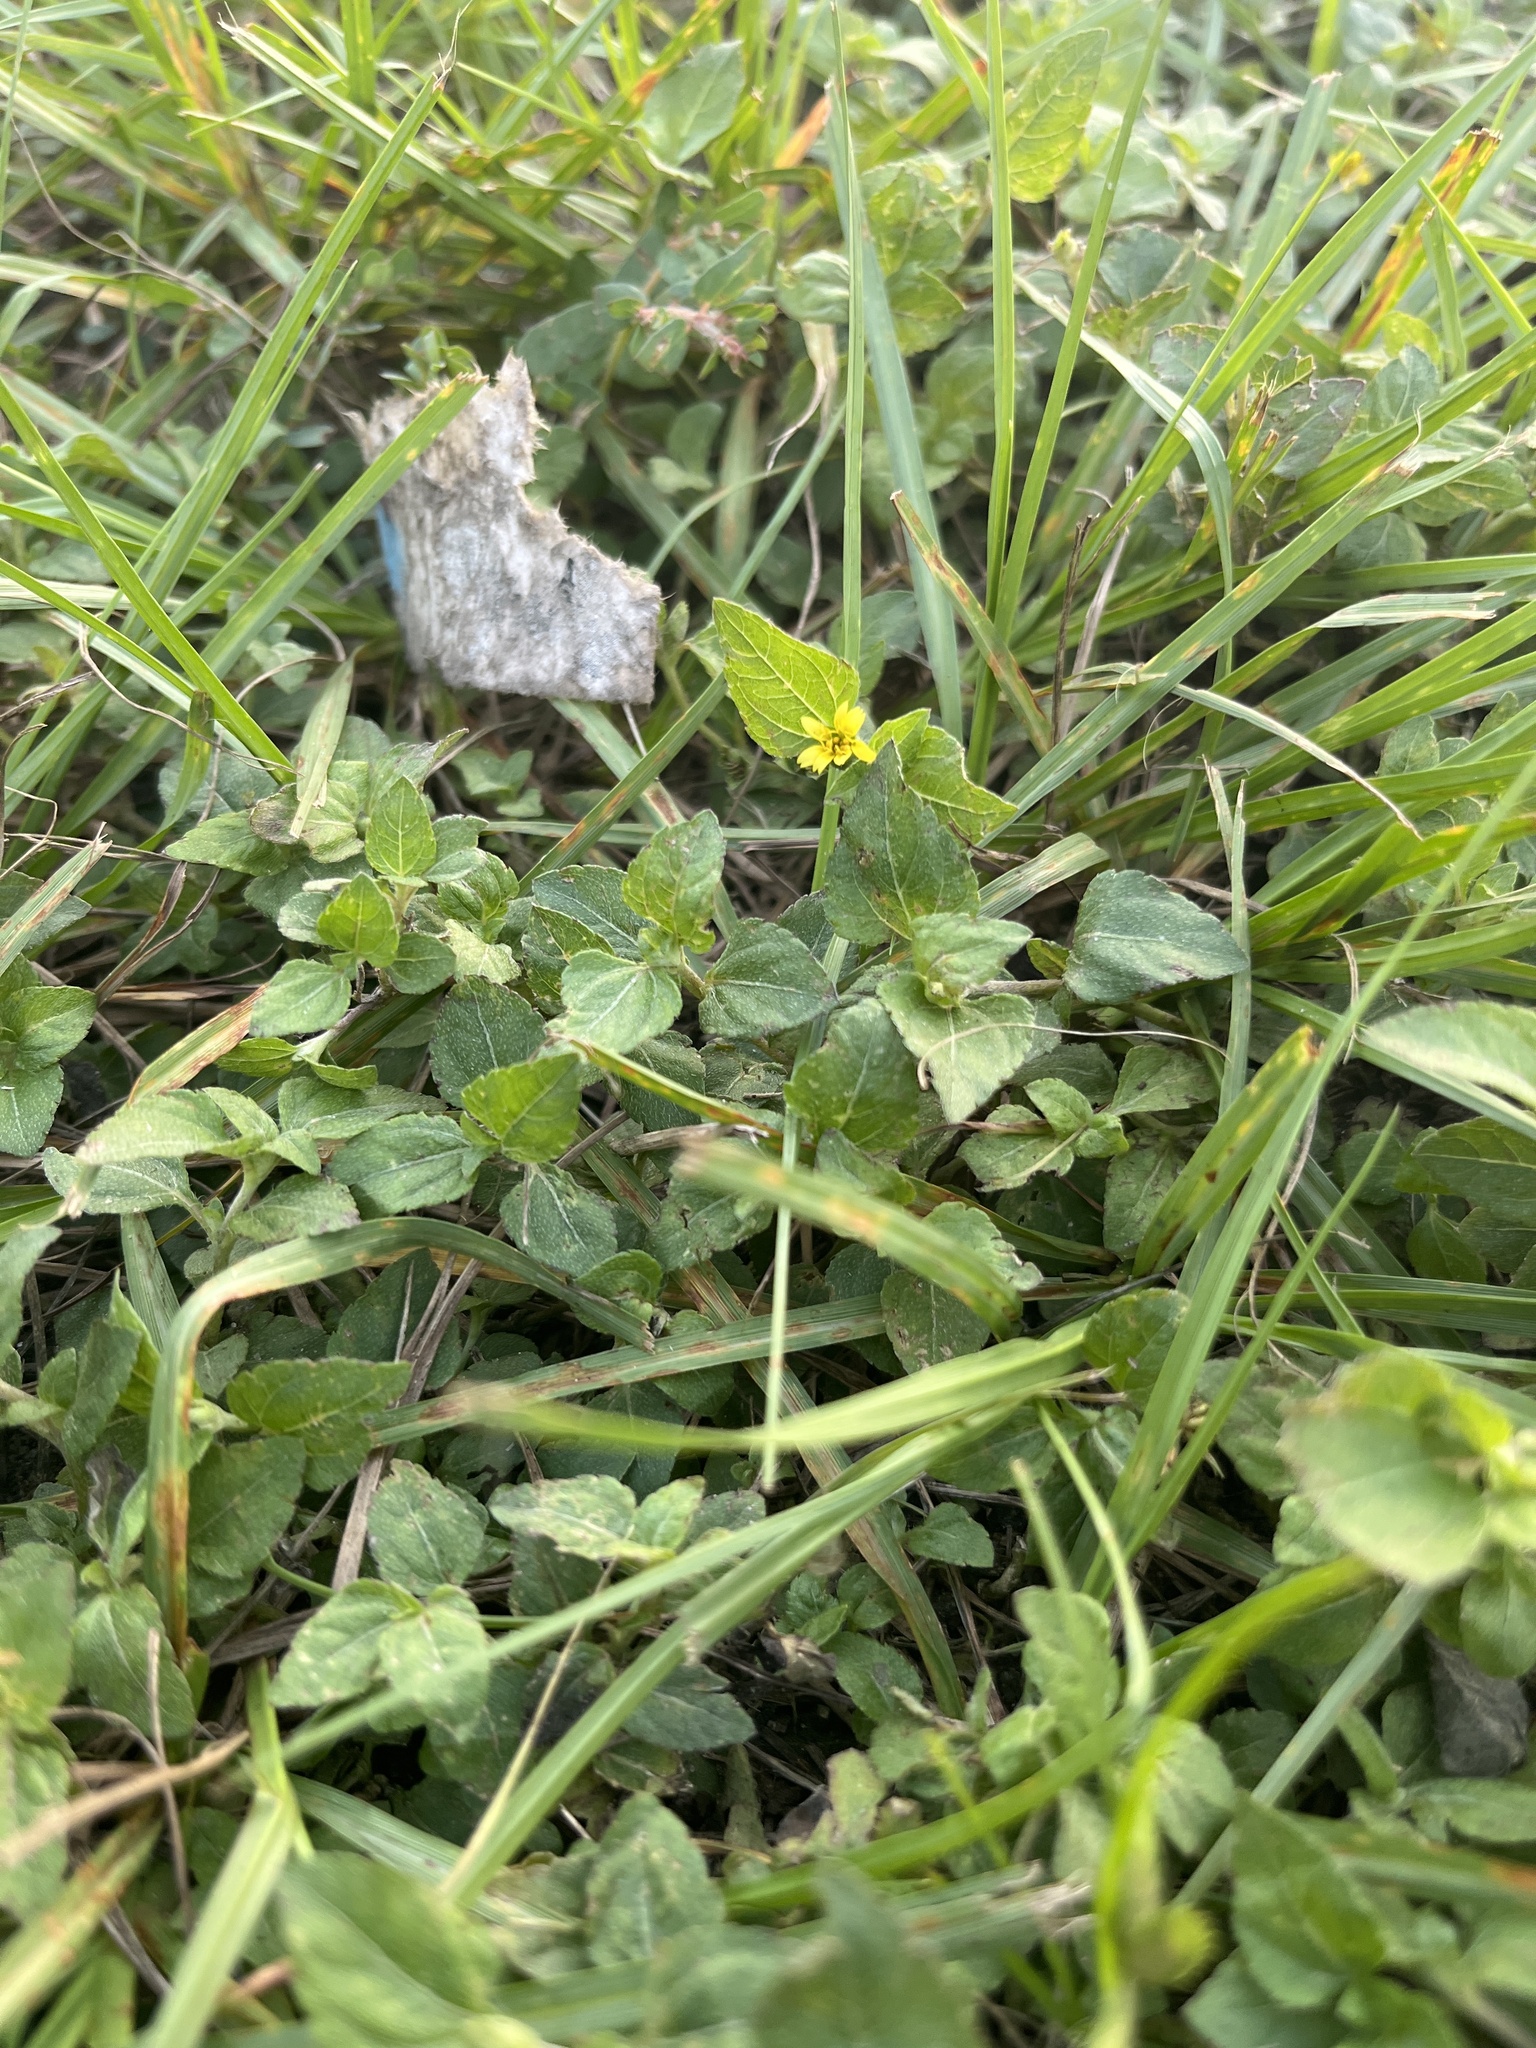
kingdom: Plantae
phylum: Tracheophyta
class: Magnoliopsida
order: Asterales
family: Asteraceae
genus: Calyptocarpus
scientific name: Calyptocarpus vialis
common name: Straggler daisy
